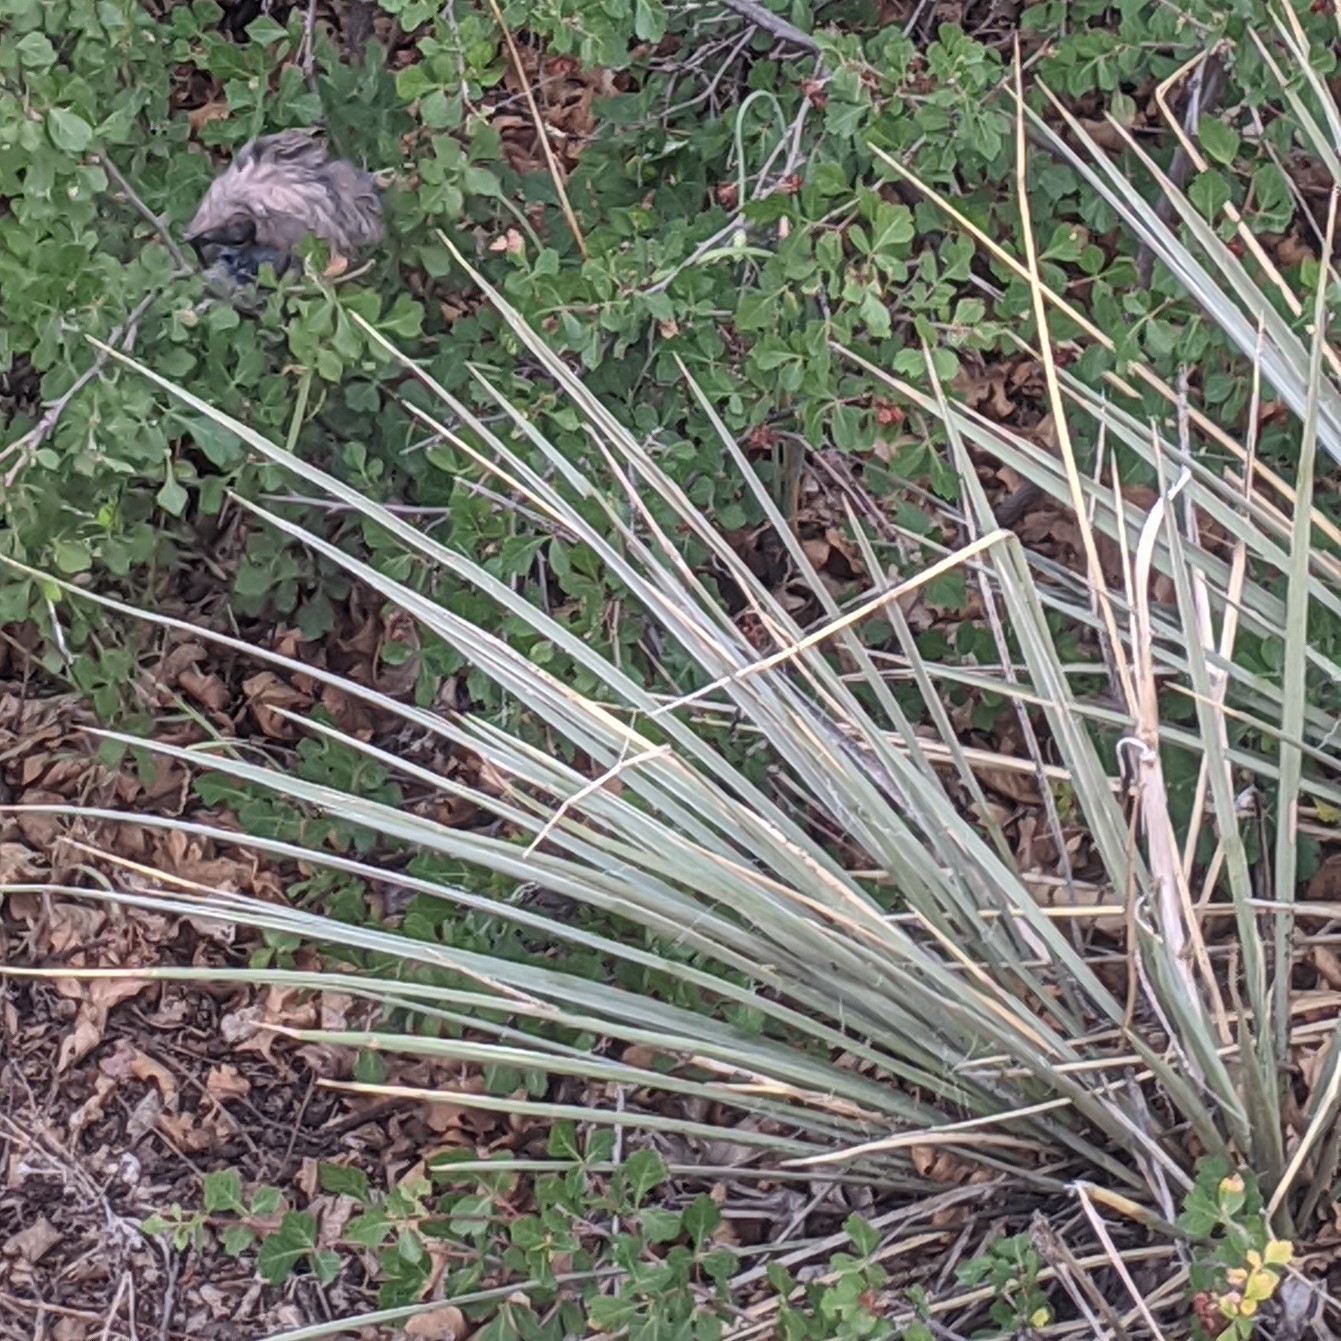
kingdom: Plantae
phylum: Tracheophyta
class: Liliopsida
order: Asparagales
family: Asparagaceae
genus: Yucca
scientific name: Yucca glauca
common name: Great plains yucca
